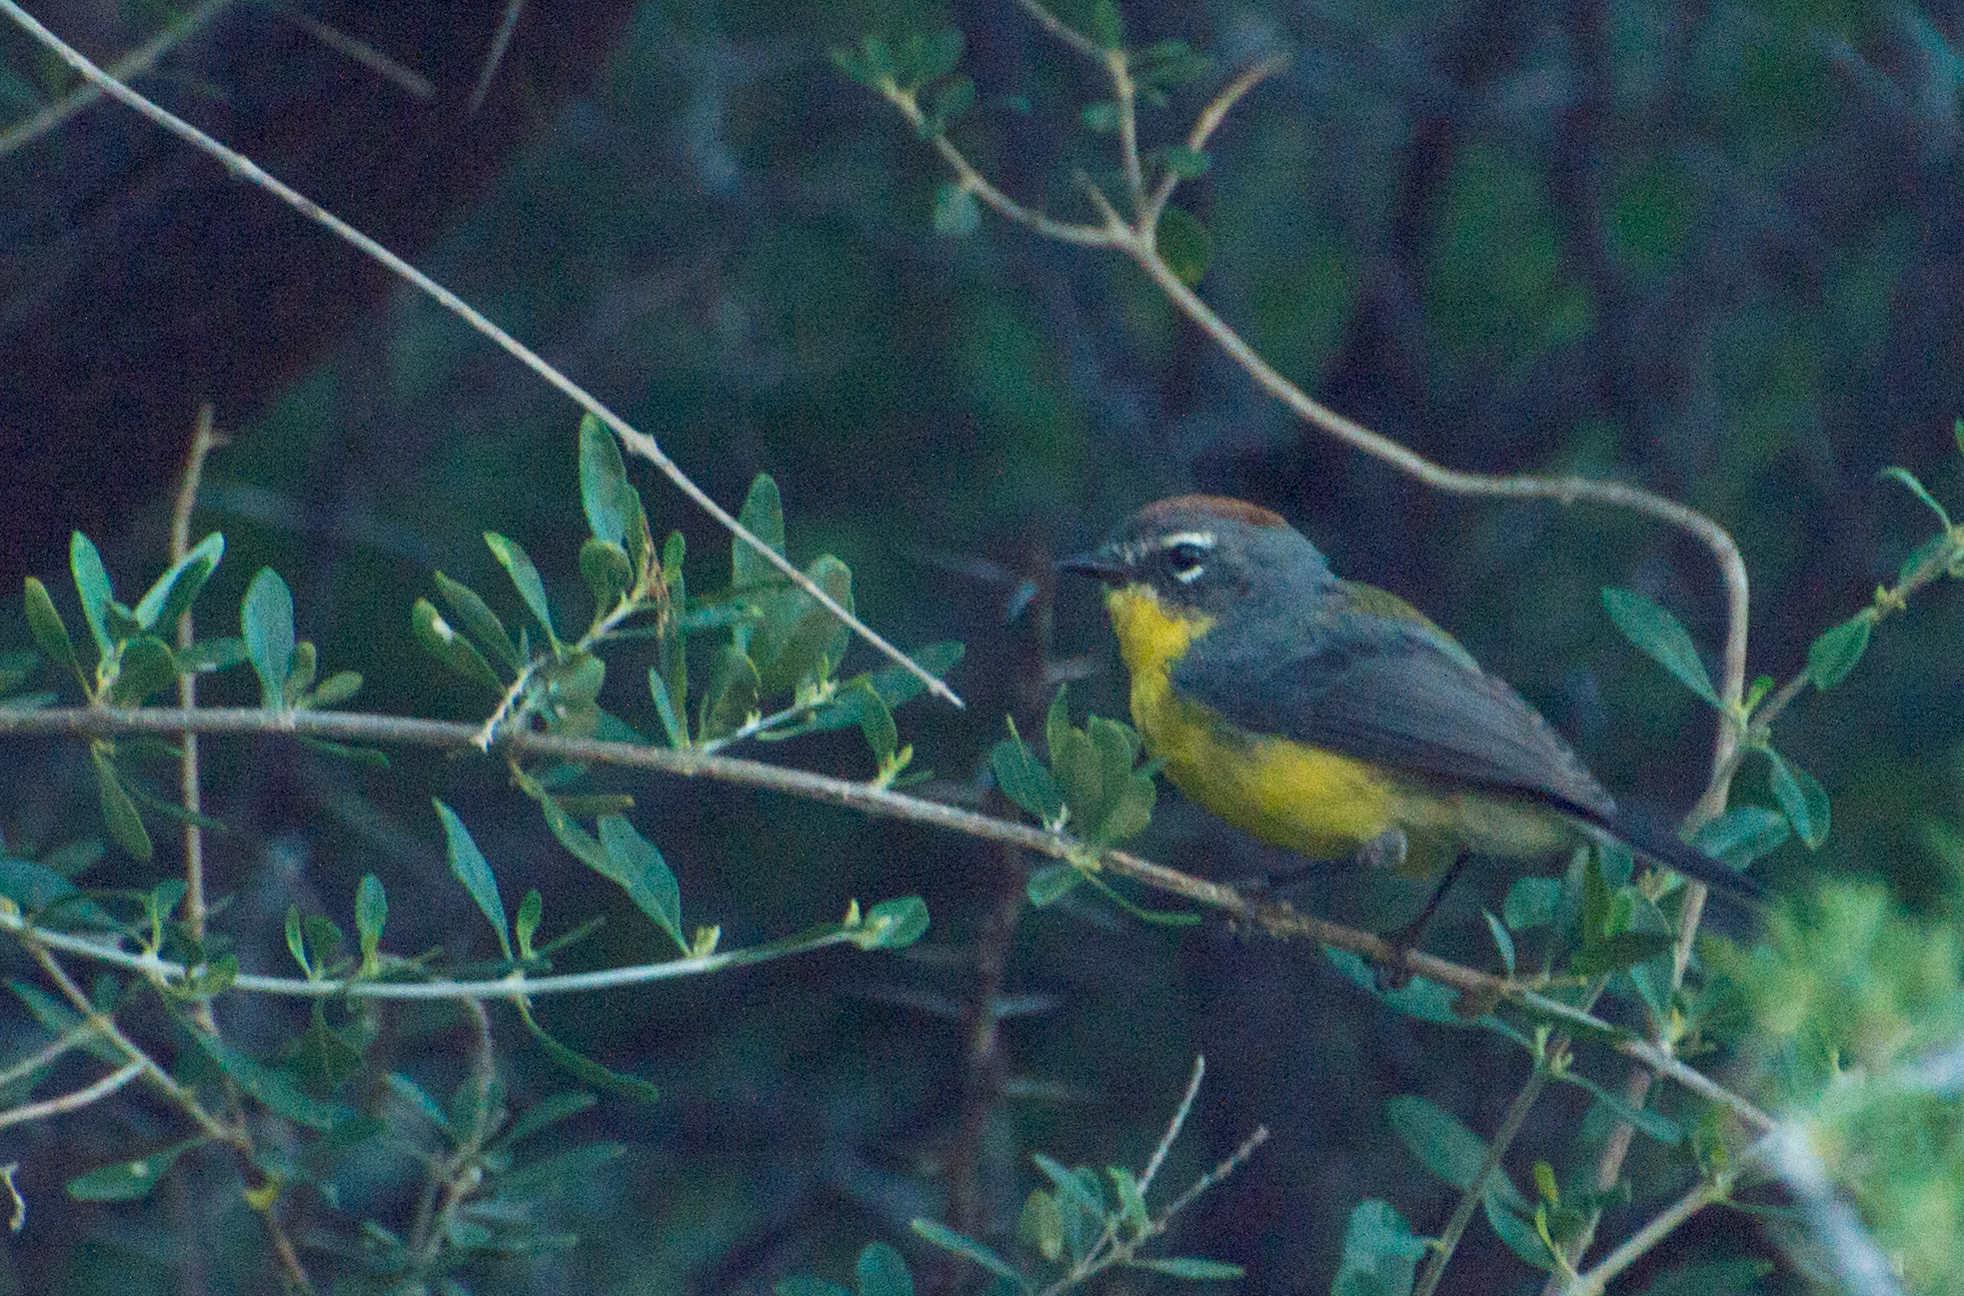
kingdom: Animalia
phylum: Chordata
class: Aves
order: Passeriformes
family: Parulidae
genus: Myioborus
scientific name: Myioborus brunniceps
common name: Brown-capped whitestart
